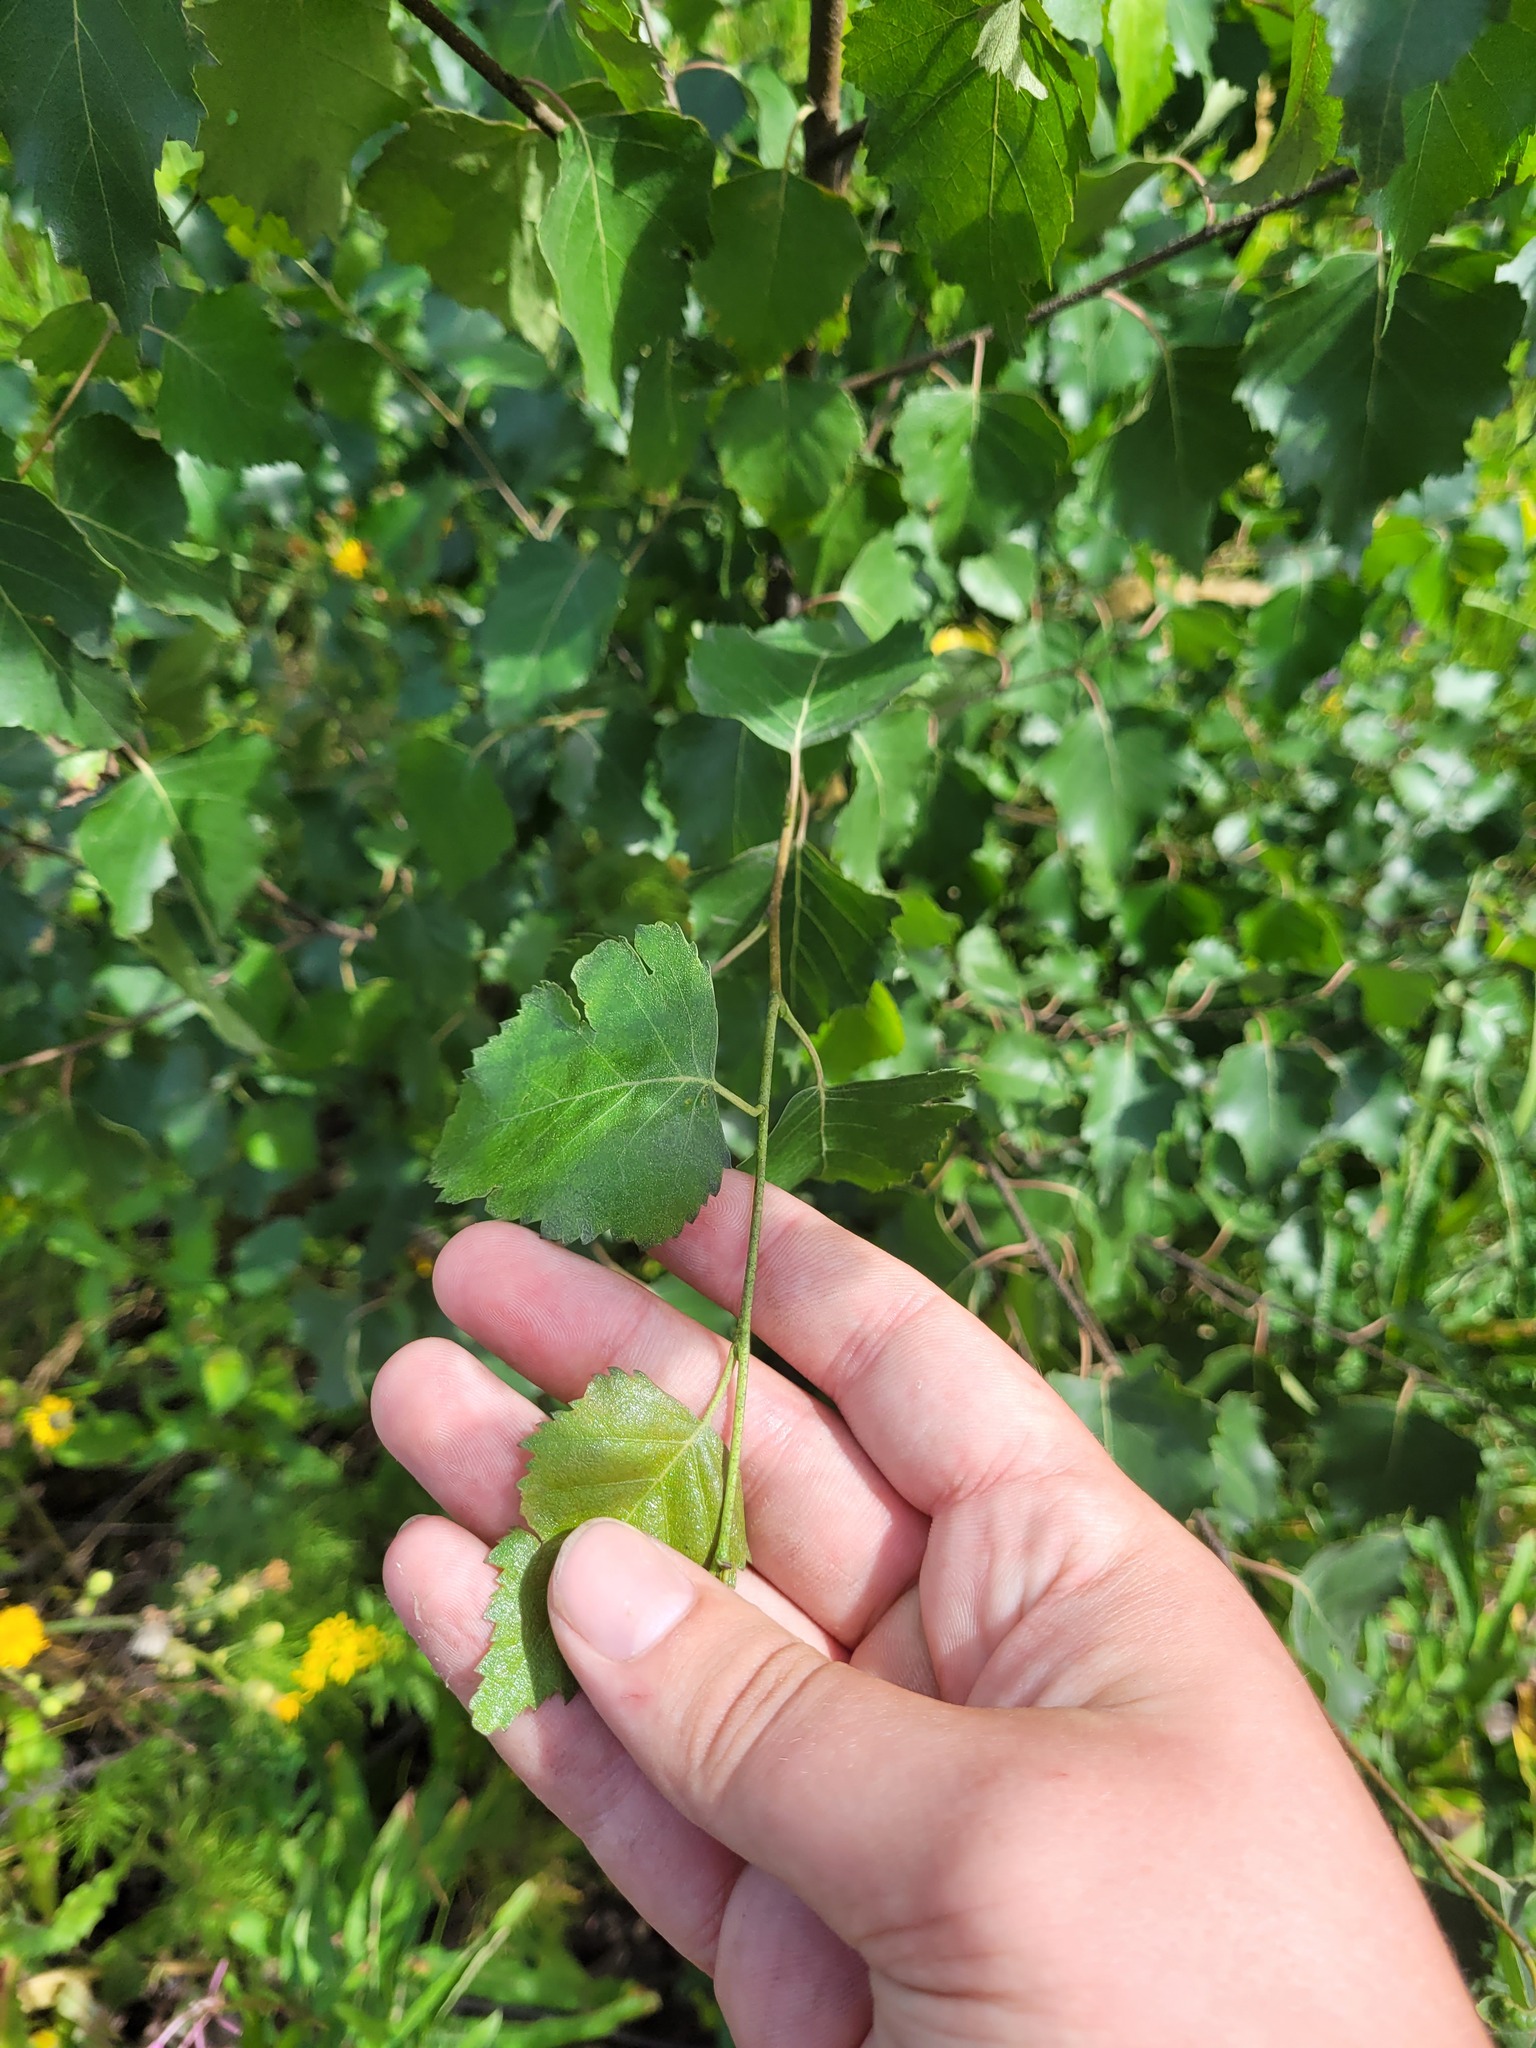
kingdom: Plantae
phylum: Tracheophyta
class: Magnoliopsida
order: Fagales
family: Betulaceae
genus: Betula
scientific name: Betula pendula
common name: Silver birch
